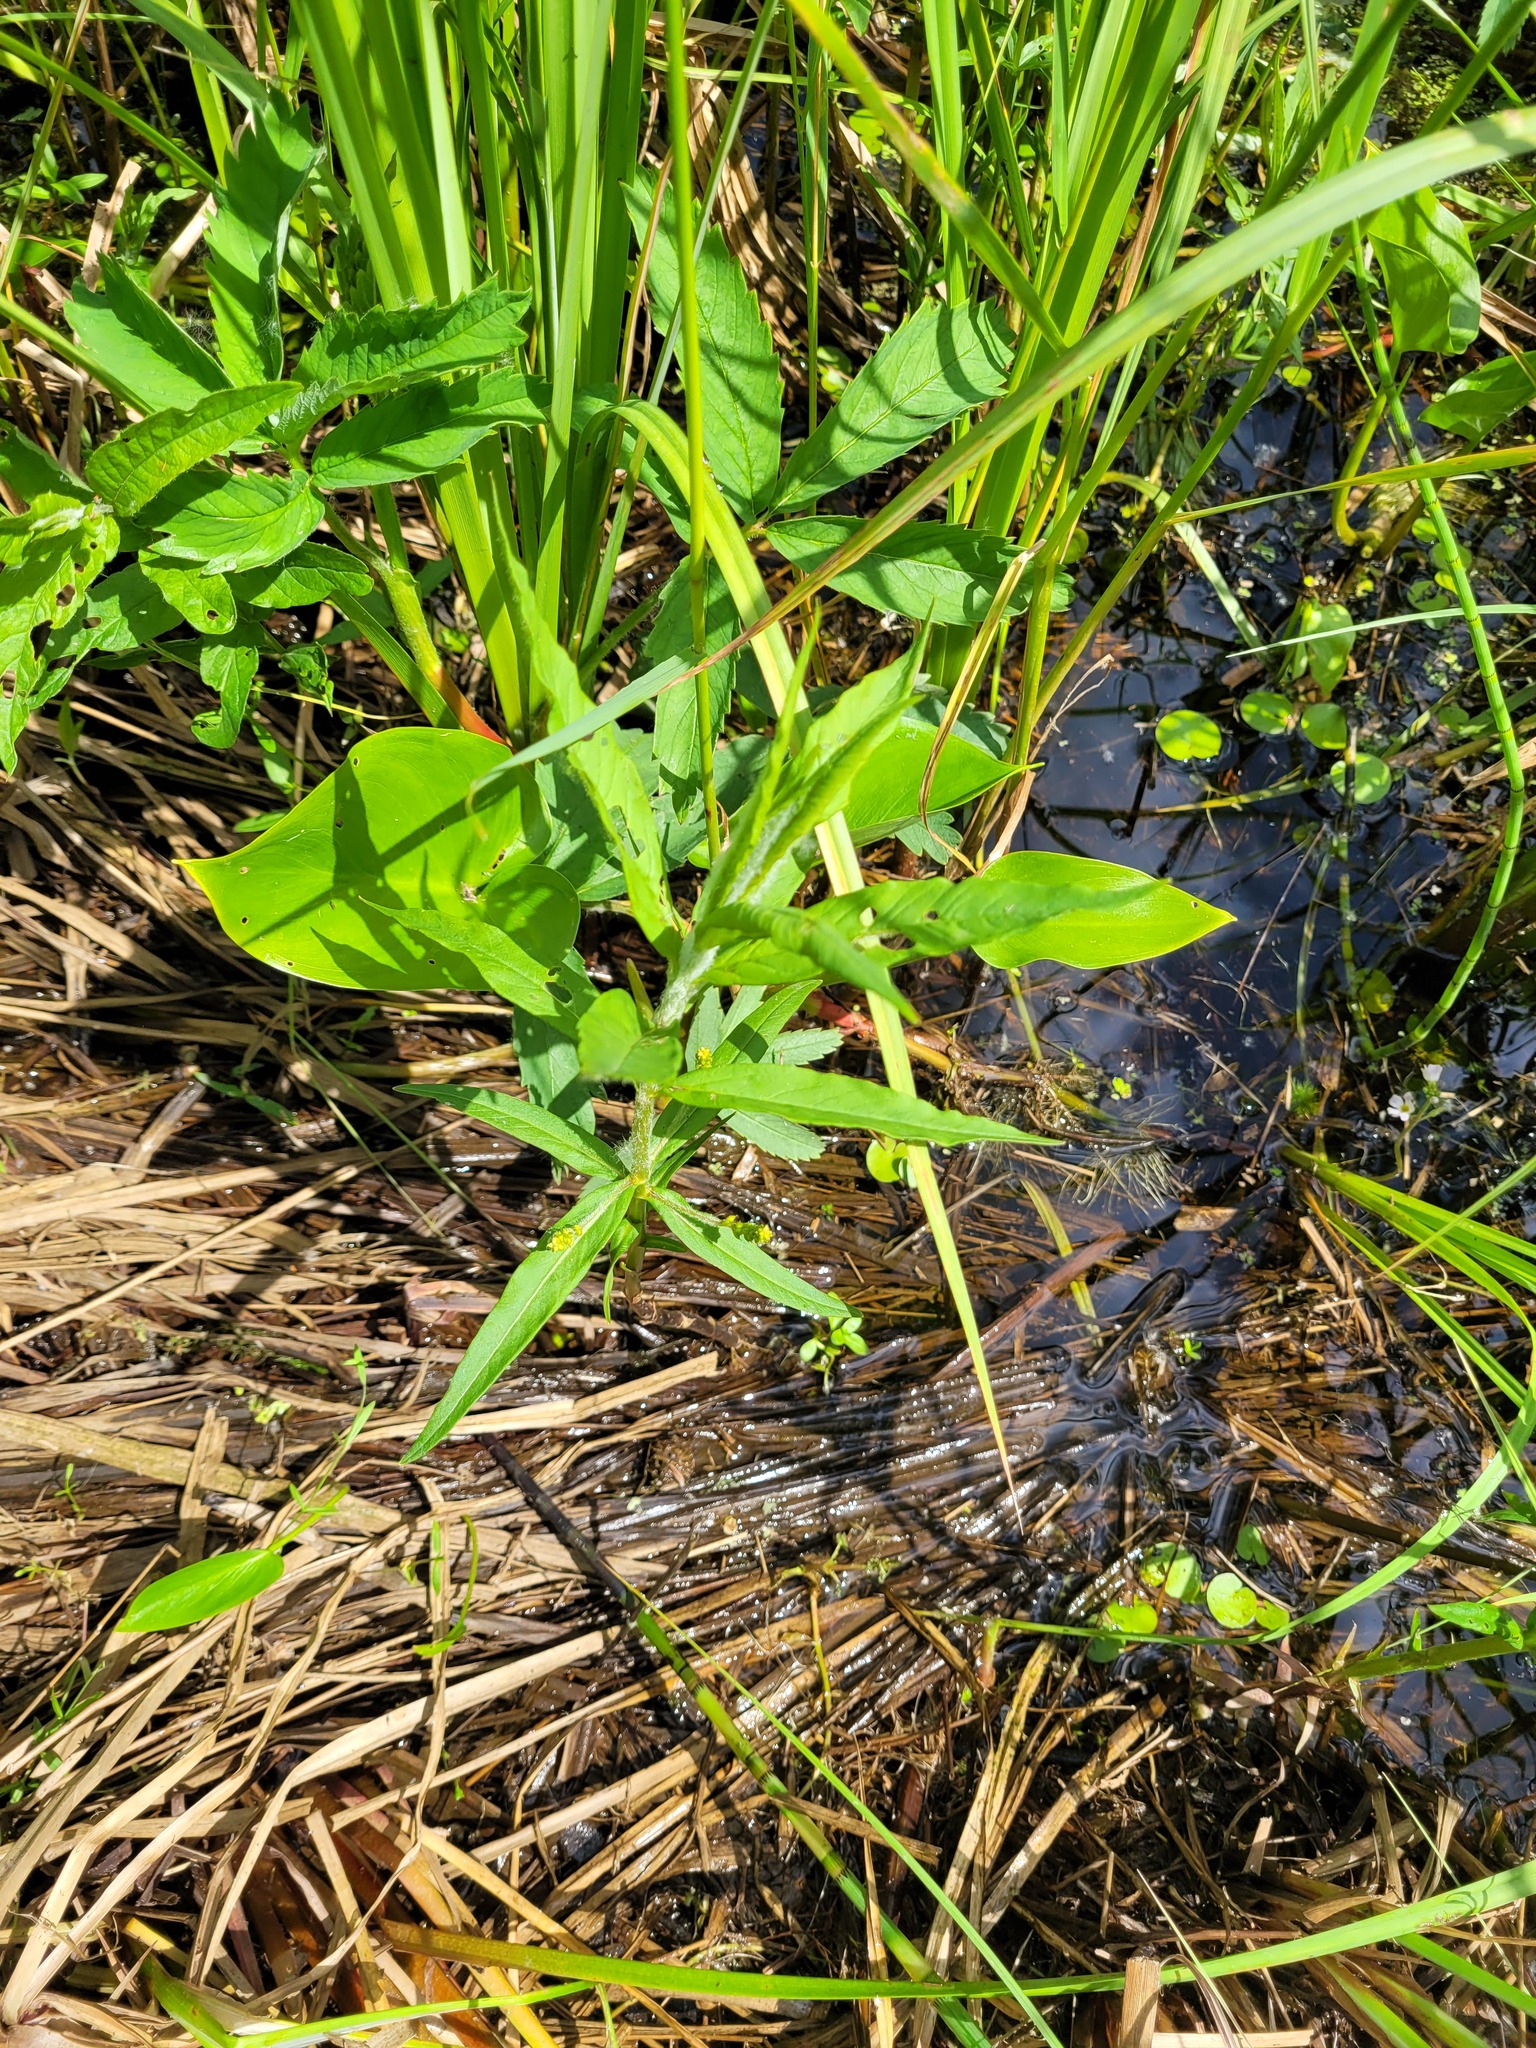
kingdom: Plantae
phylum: Tracheophyta
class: Magnoliopsida
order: Ericales
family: Primulaceae
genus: Lysimachia
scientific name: Lysimachia thyrsiflora
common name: Tufted loosestrife
